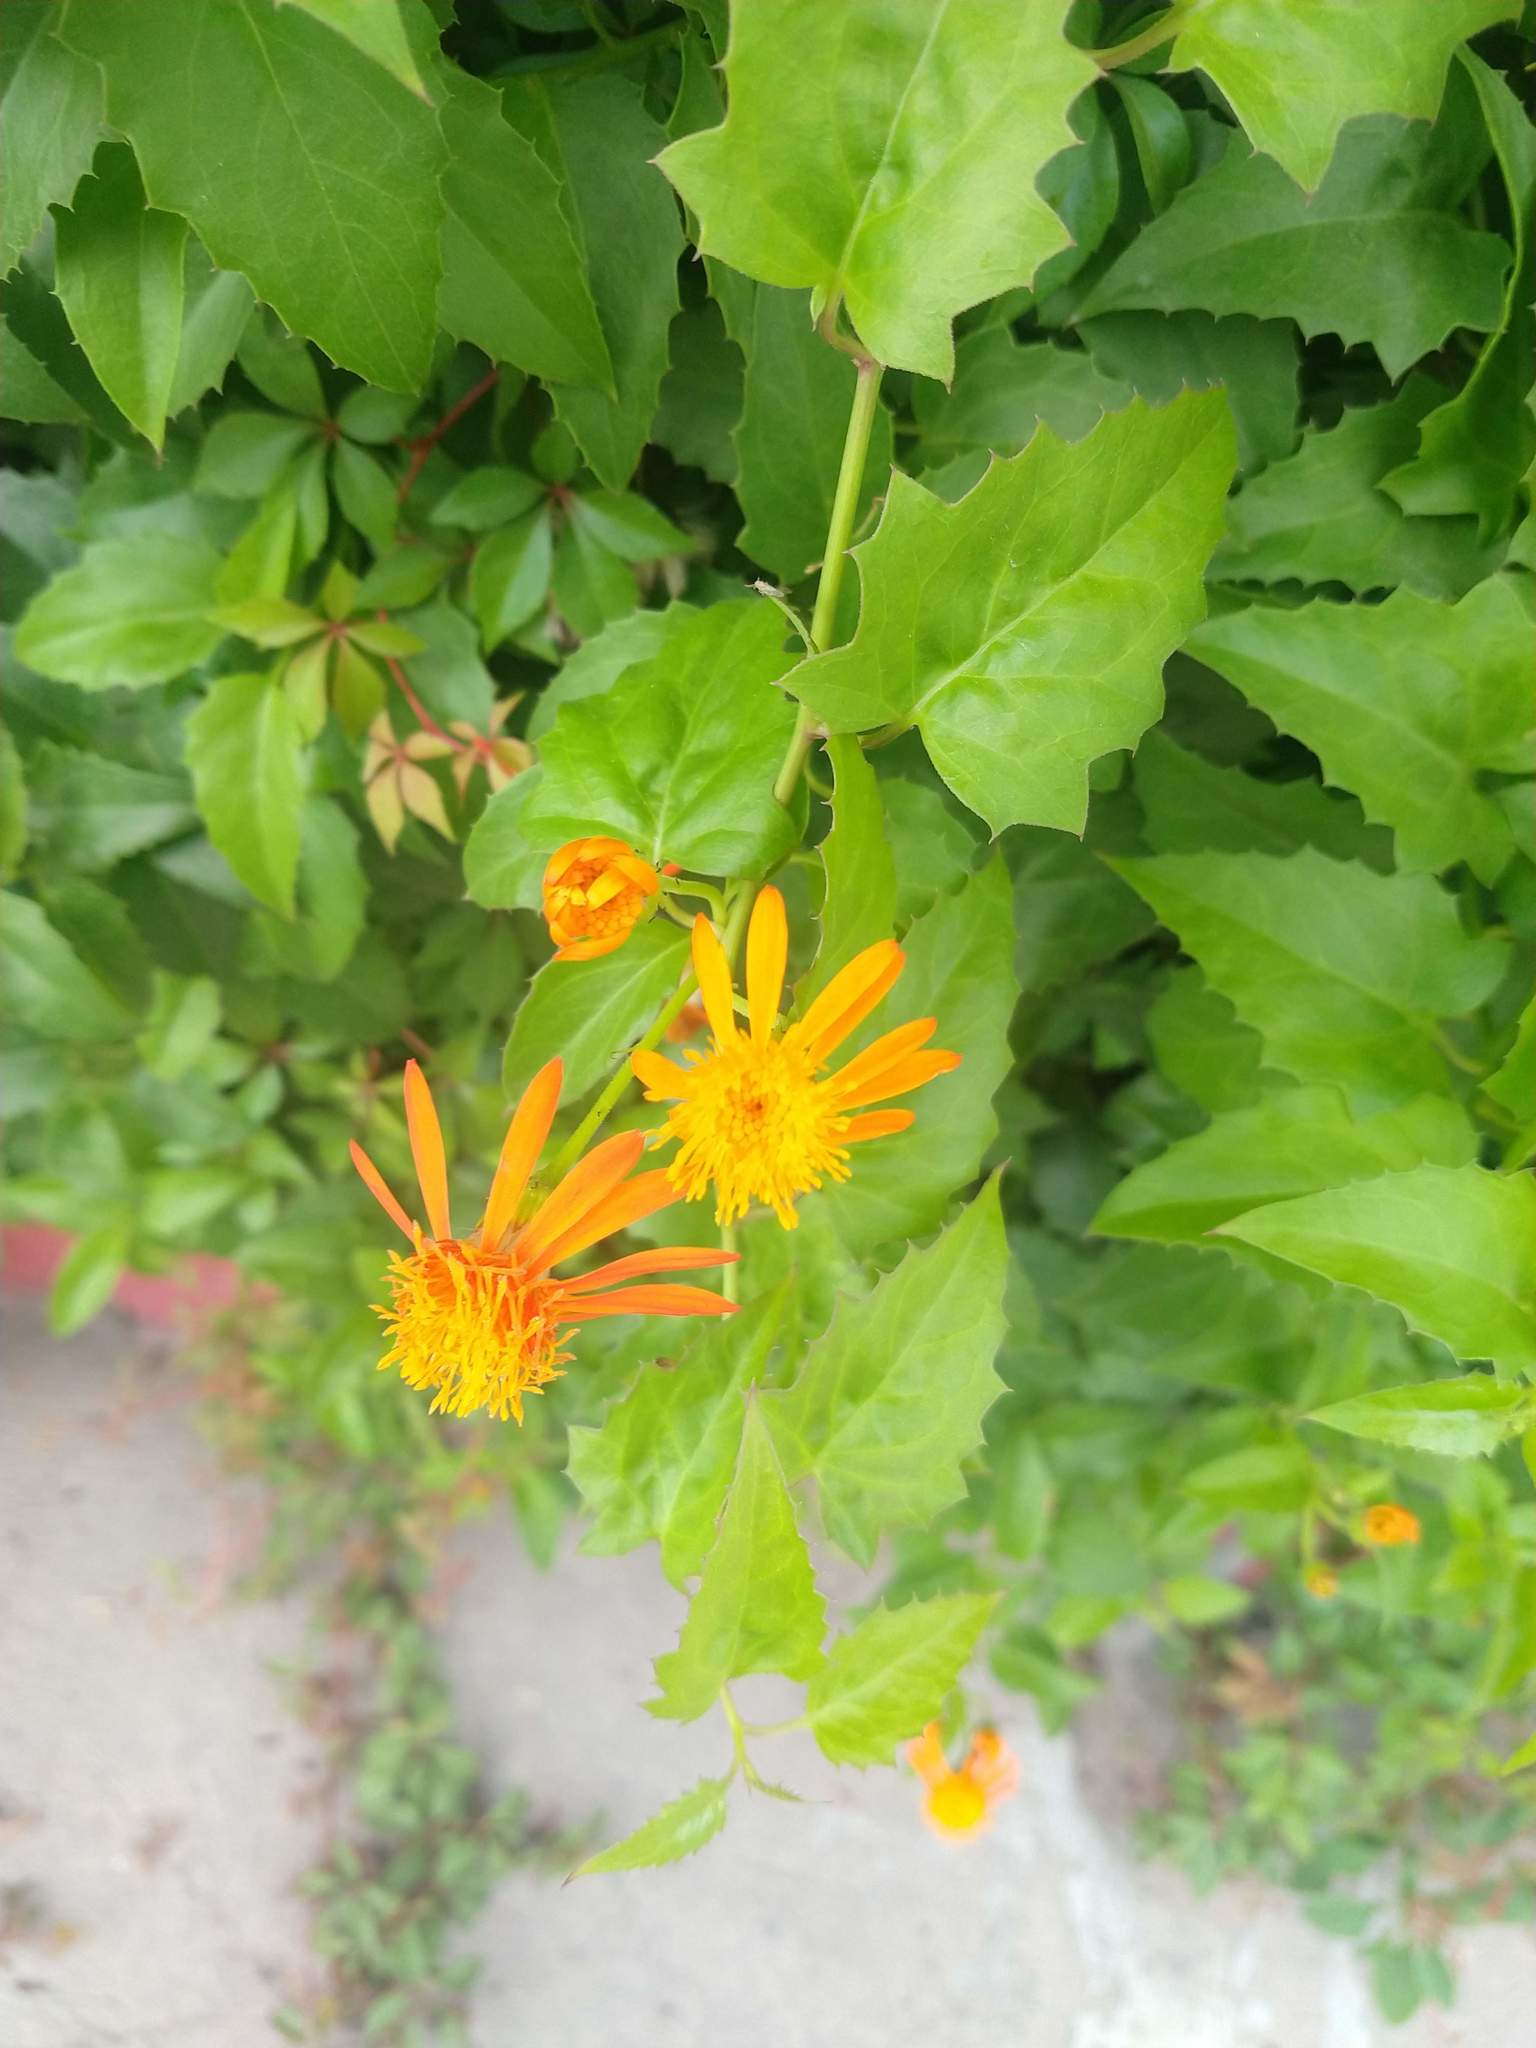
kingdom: Plantae
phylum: Tracheophyta
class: Magnoliopsida
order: Asterales
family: Asteraceae
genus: Pseudogynoxys
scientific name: Pseudogynoxys chenopodioides
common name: Mexican flamevine
